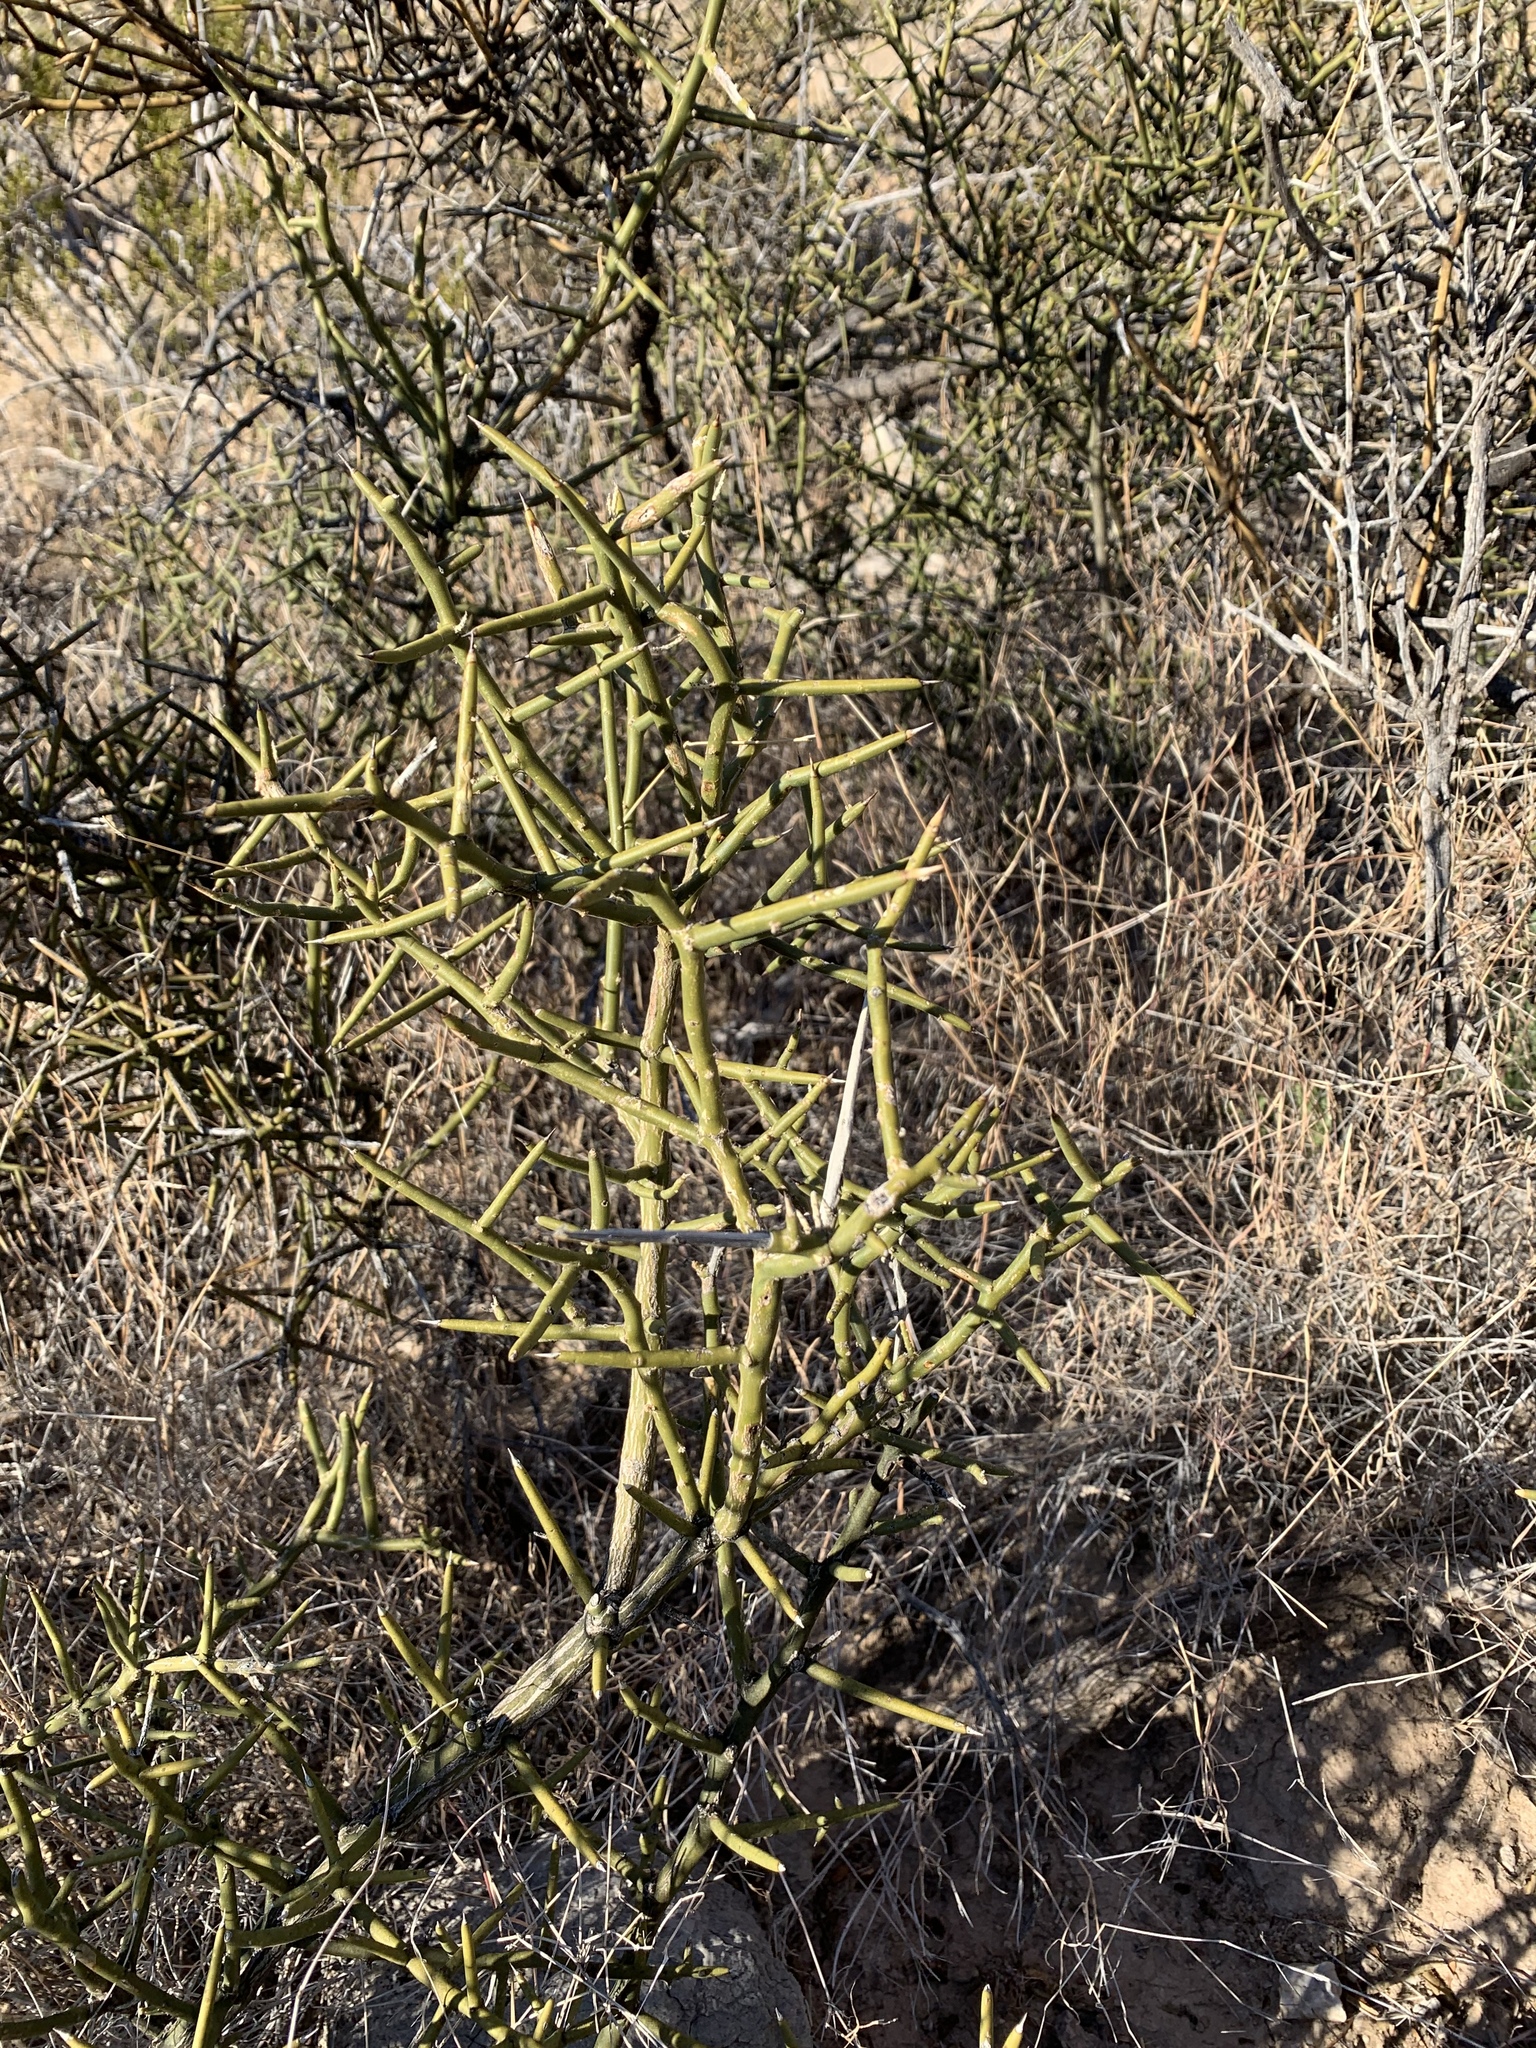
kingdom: Plantae
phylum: Tracheophyta
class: Magnoliopsida
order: Brassicales
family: Koeberliniaceae
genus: Koeberlinia
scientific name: Koeberlinia spinosa
